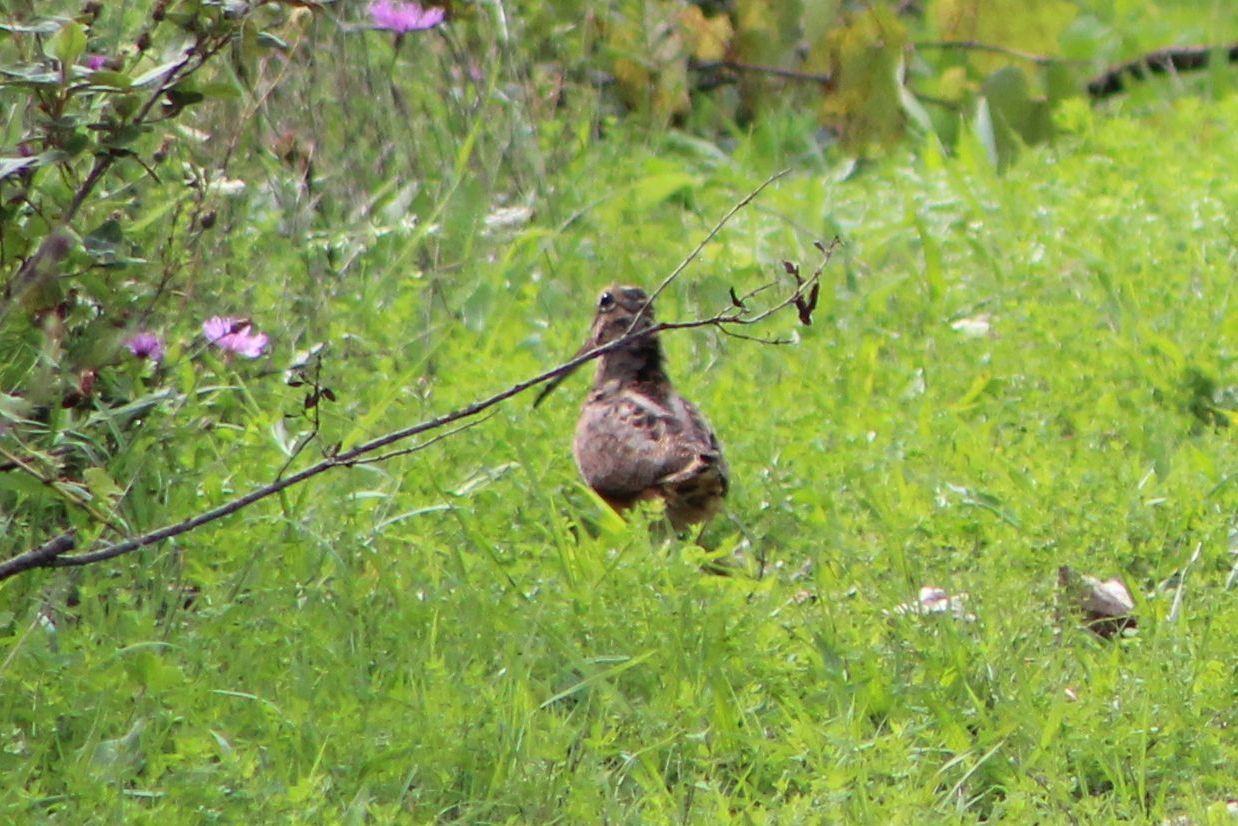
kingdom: Animalia
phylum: Chordata
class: Aves
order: Charadriiformes
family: Scolopacidae
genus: Scolopax
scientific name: Scolopax minor
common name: American woodcock
